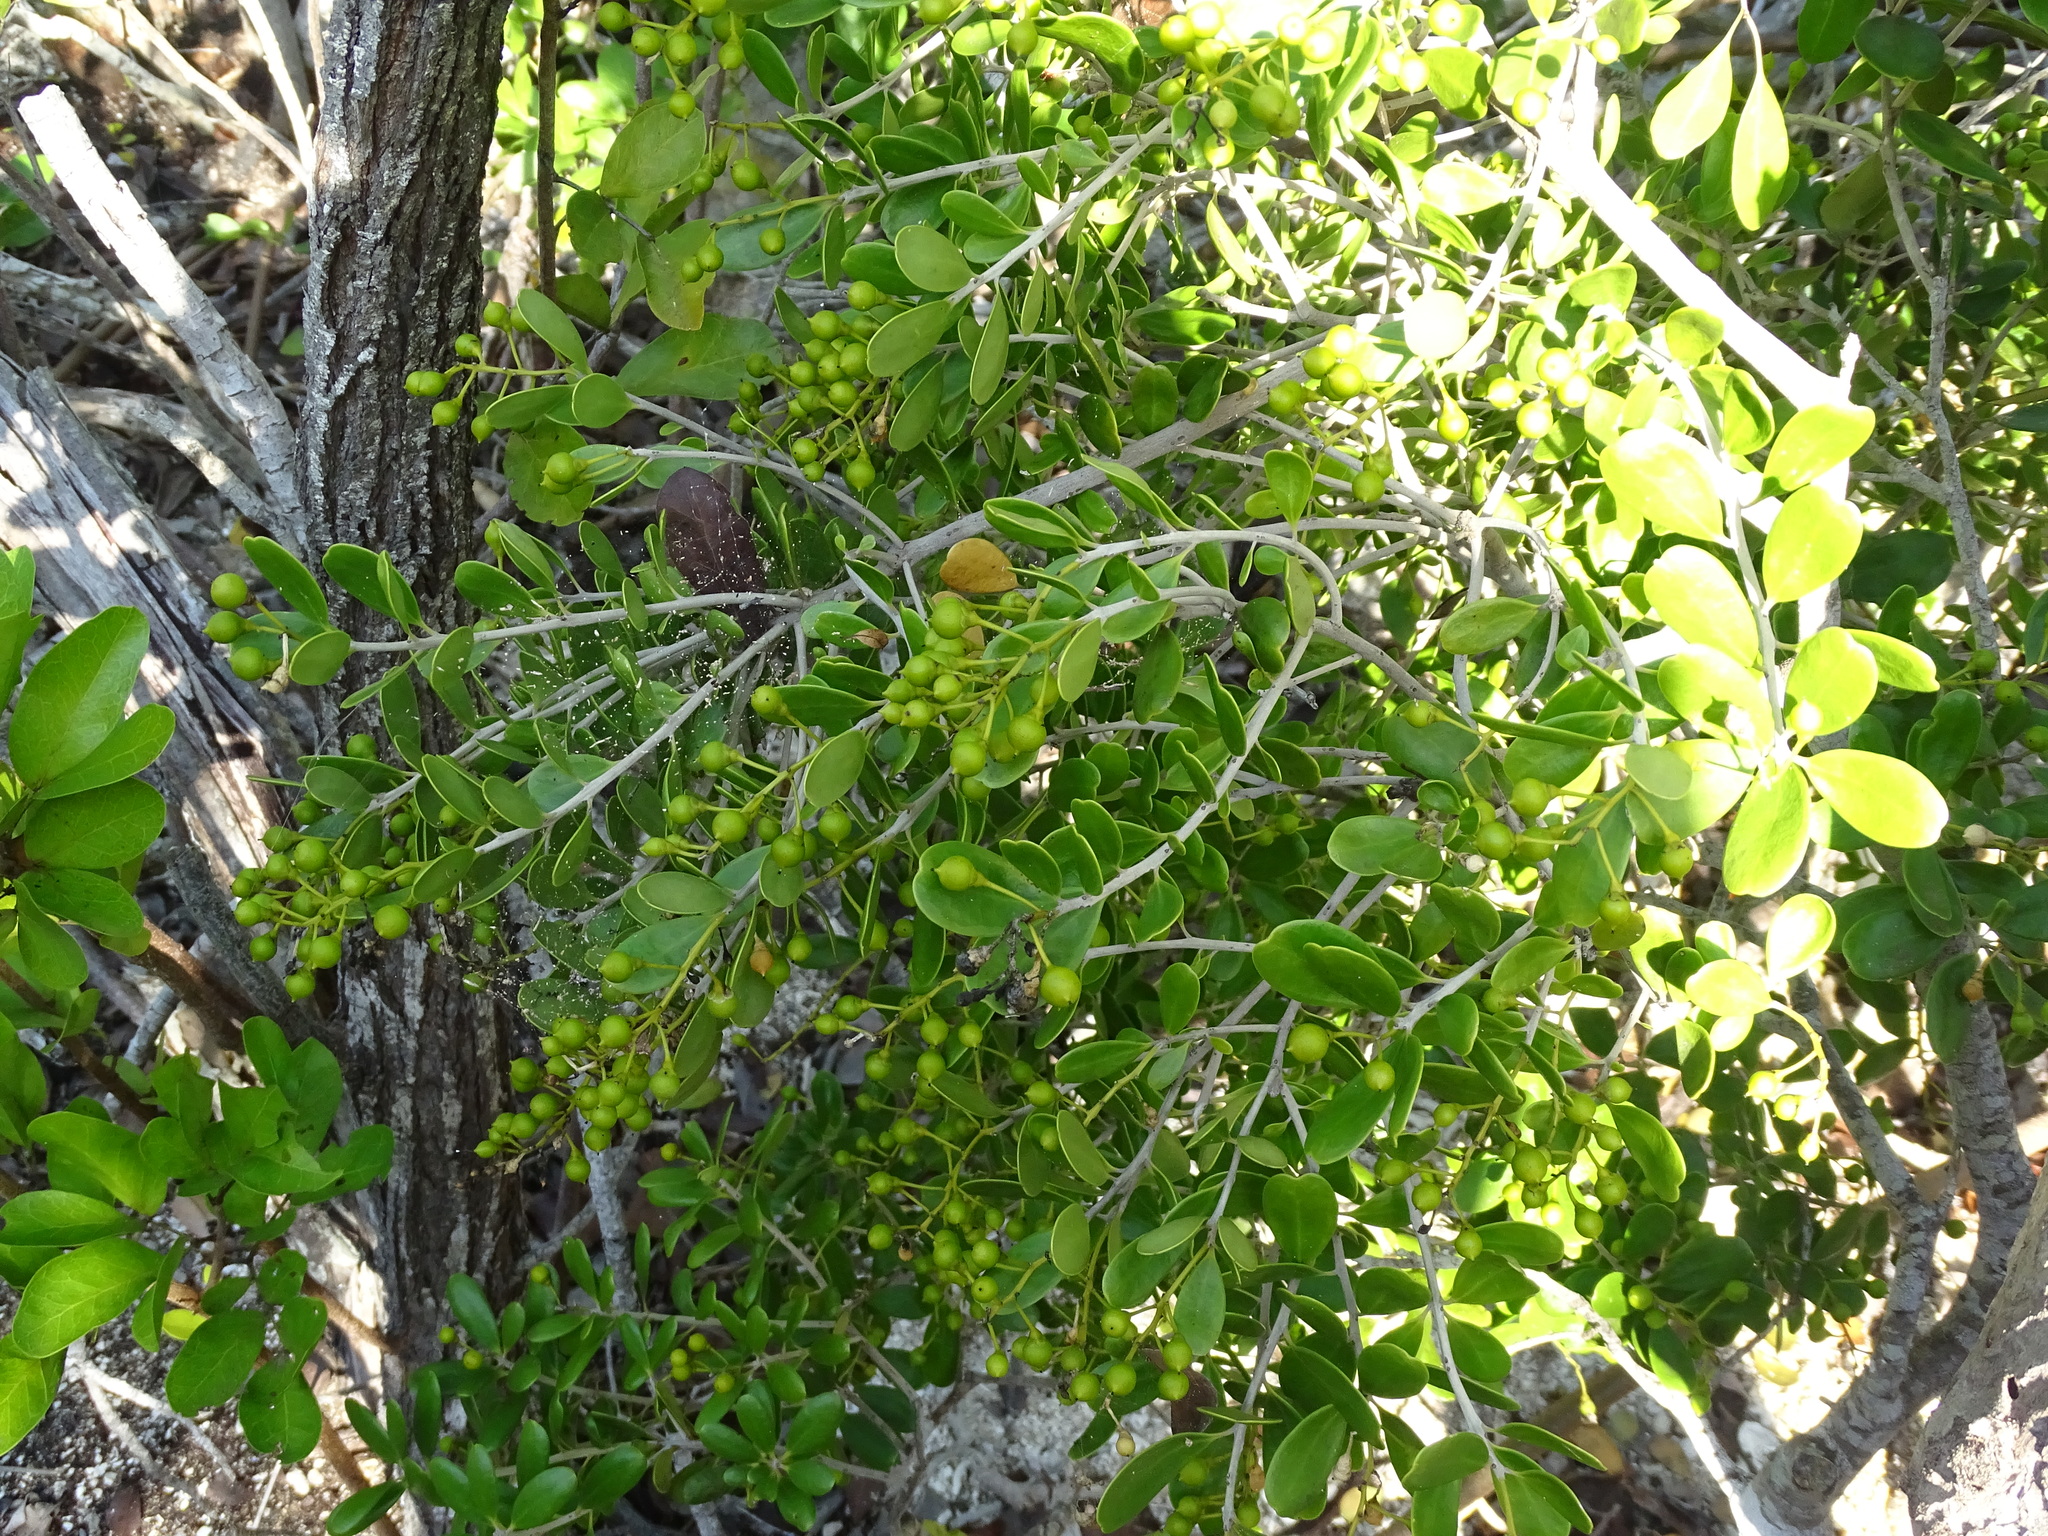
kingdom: Plantae
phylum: Tracheophyta
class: Magnoliopsida
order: Ericales
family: Primulaceae
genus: Jacquinia
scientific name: Jacquinia keyensis
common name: Joebush
